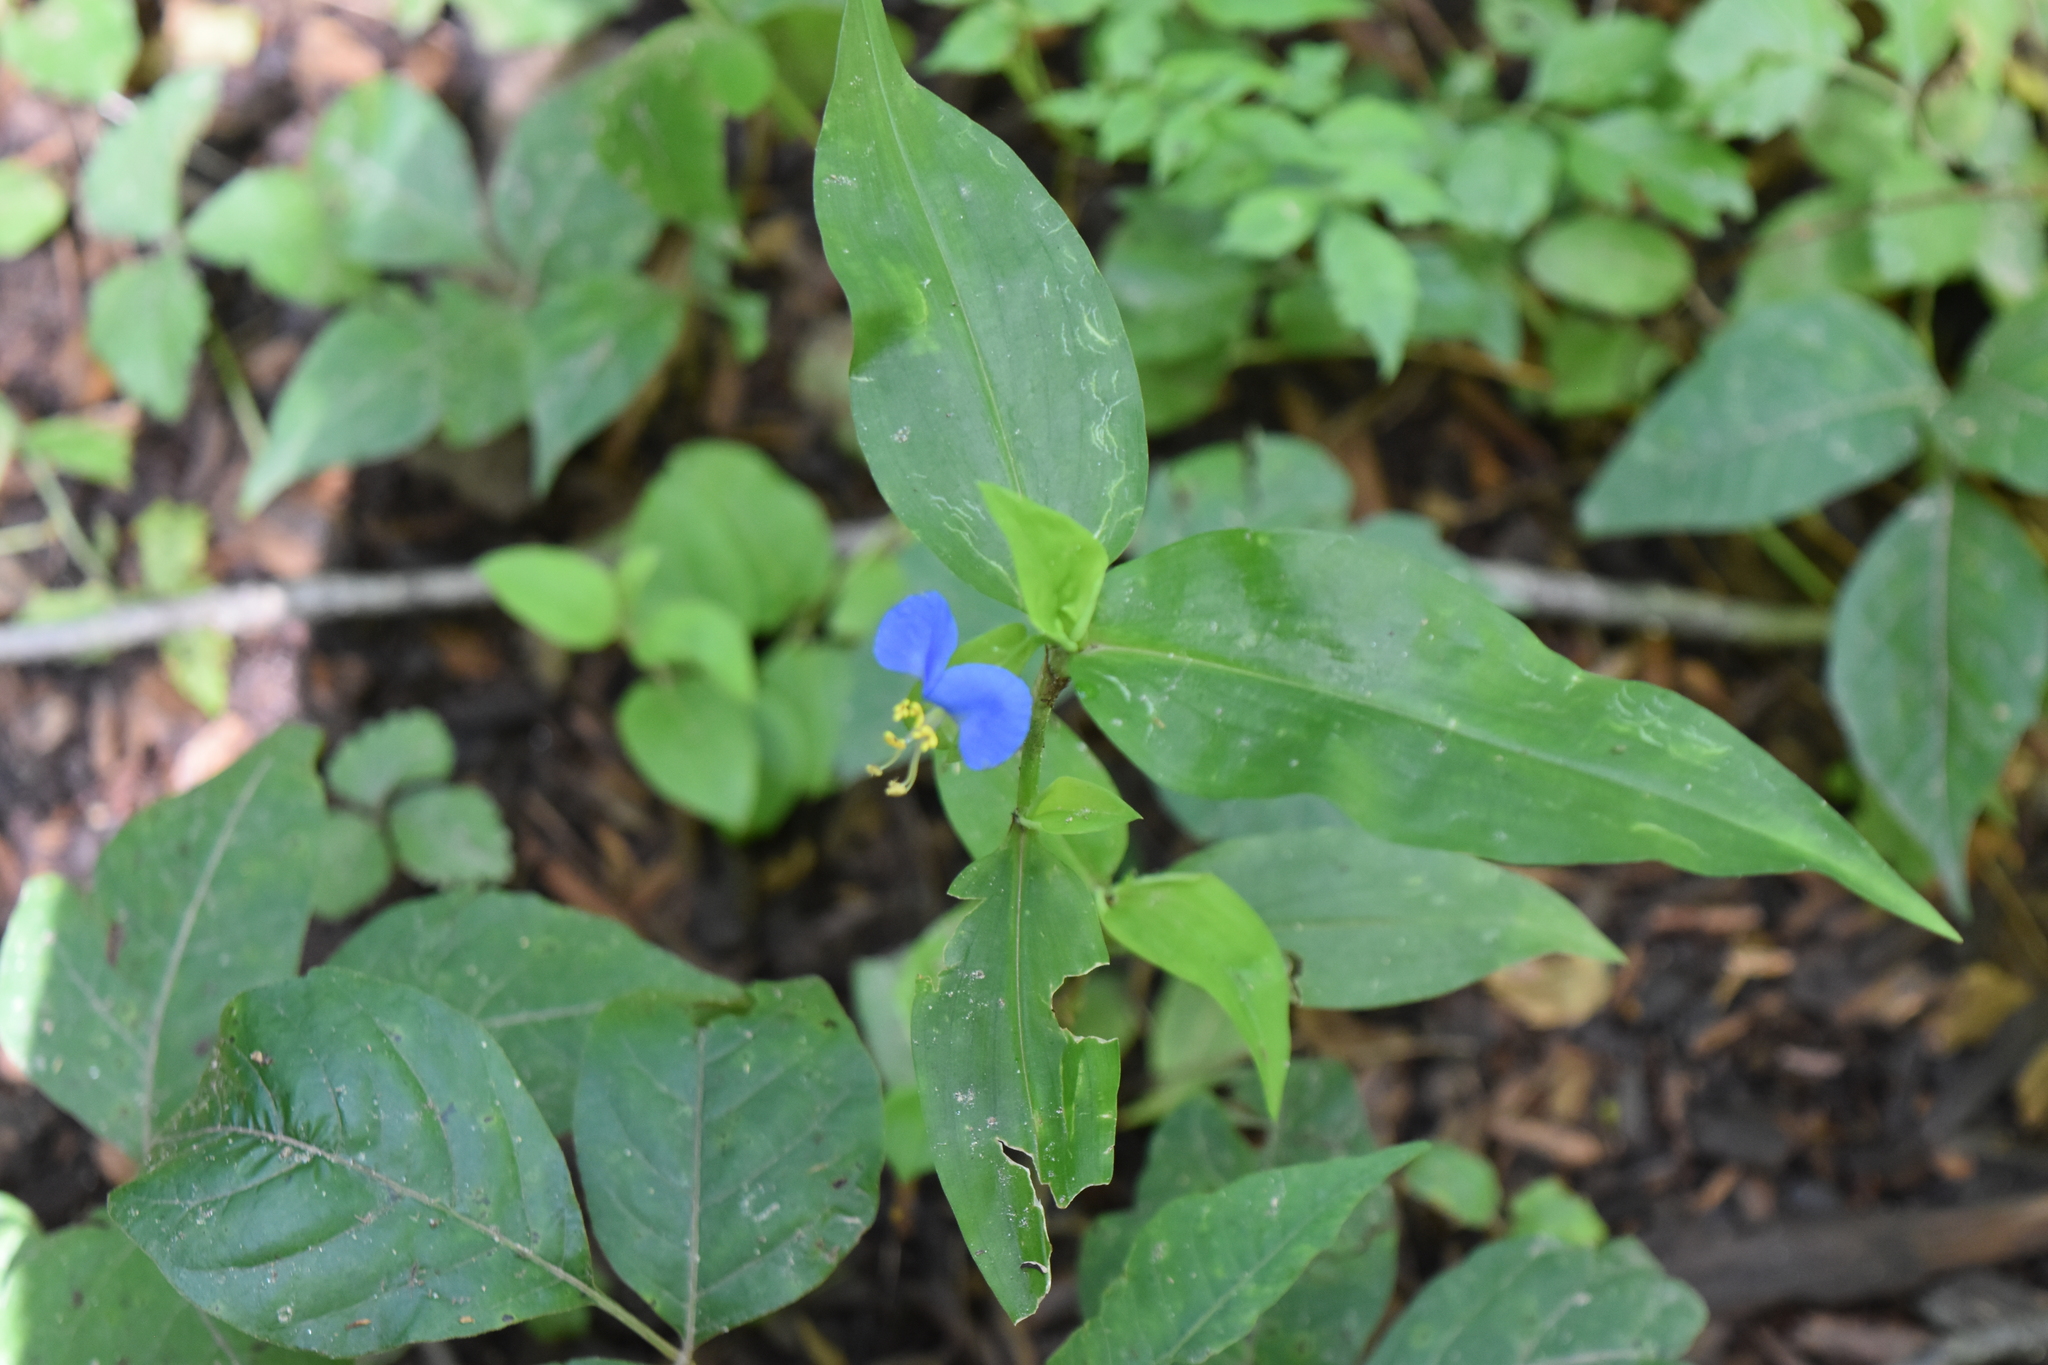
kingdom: Plantae
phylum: Tracheophyta
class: Liliopsida
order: Commelinales
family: Commelinaceae
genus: Commelina
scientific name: Commelina communis
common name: Asiatic dayflower
